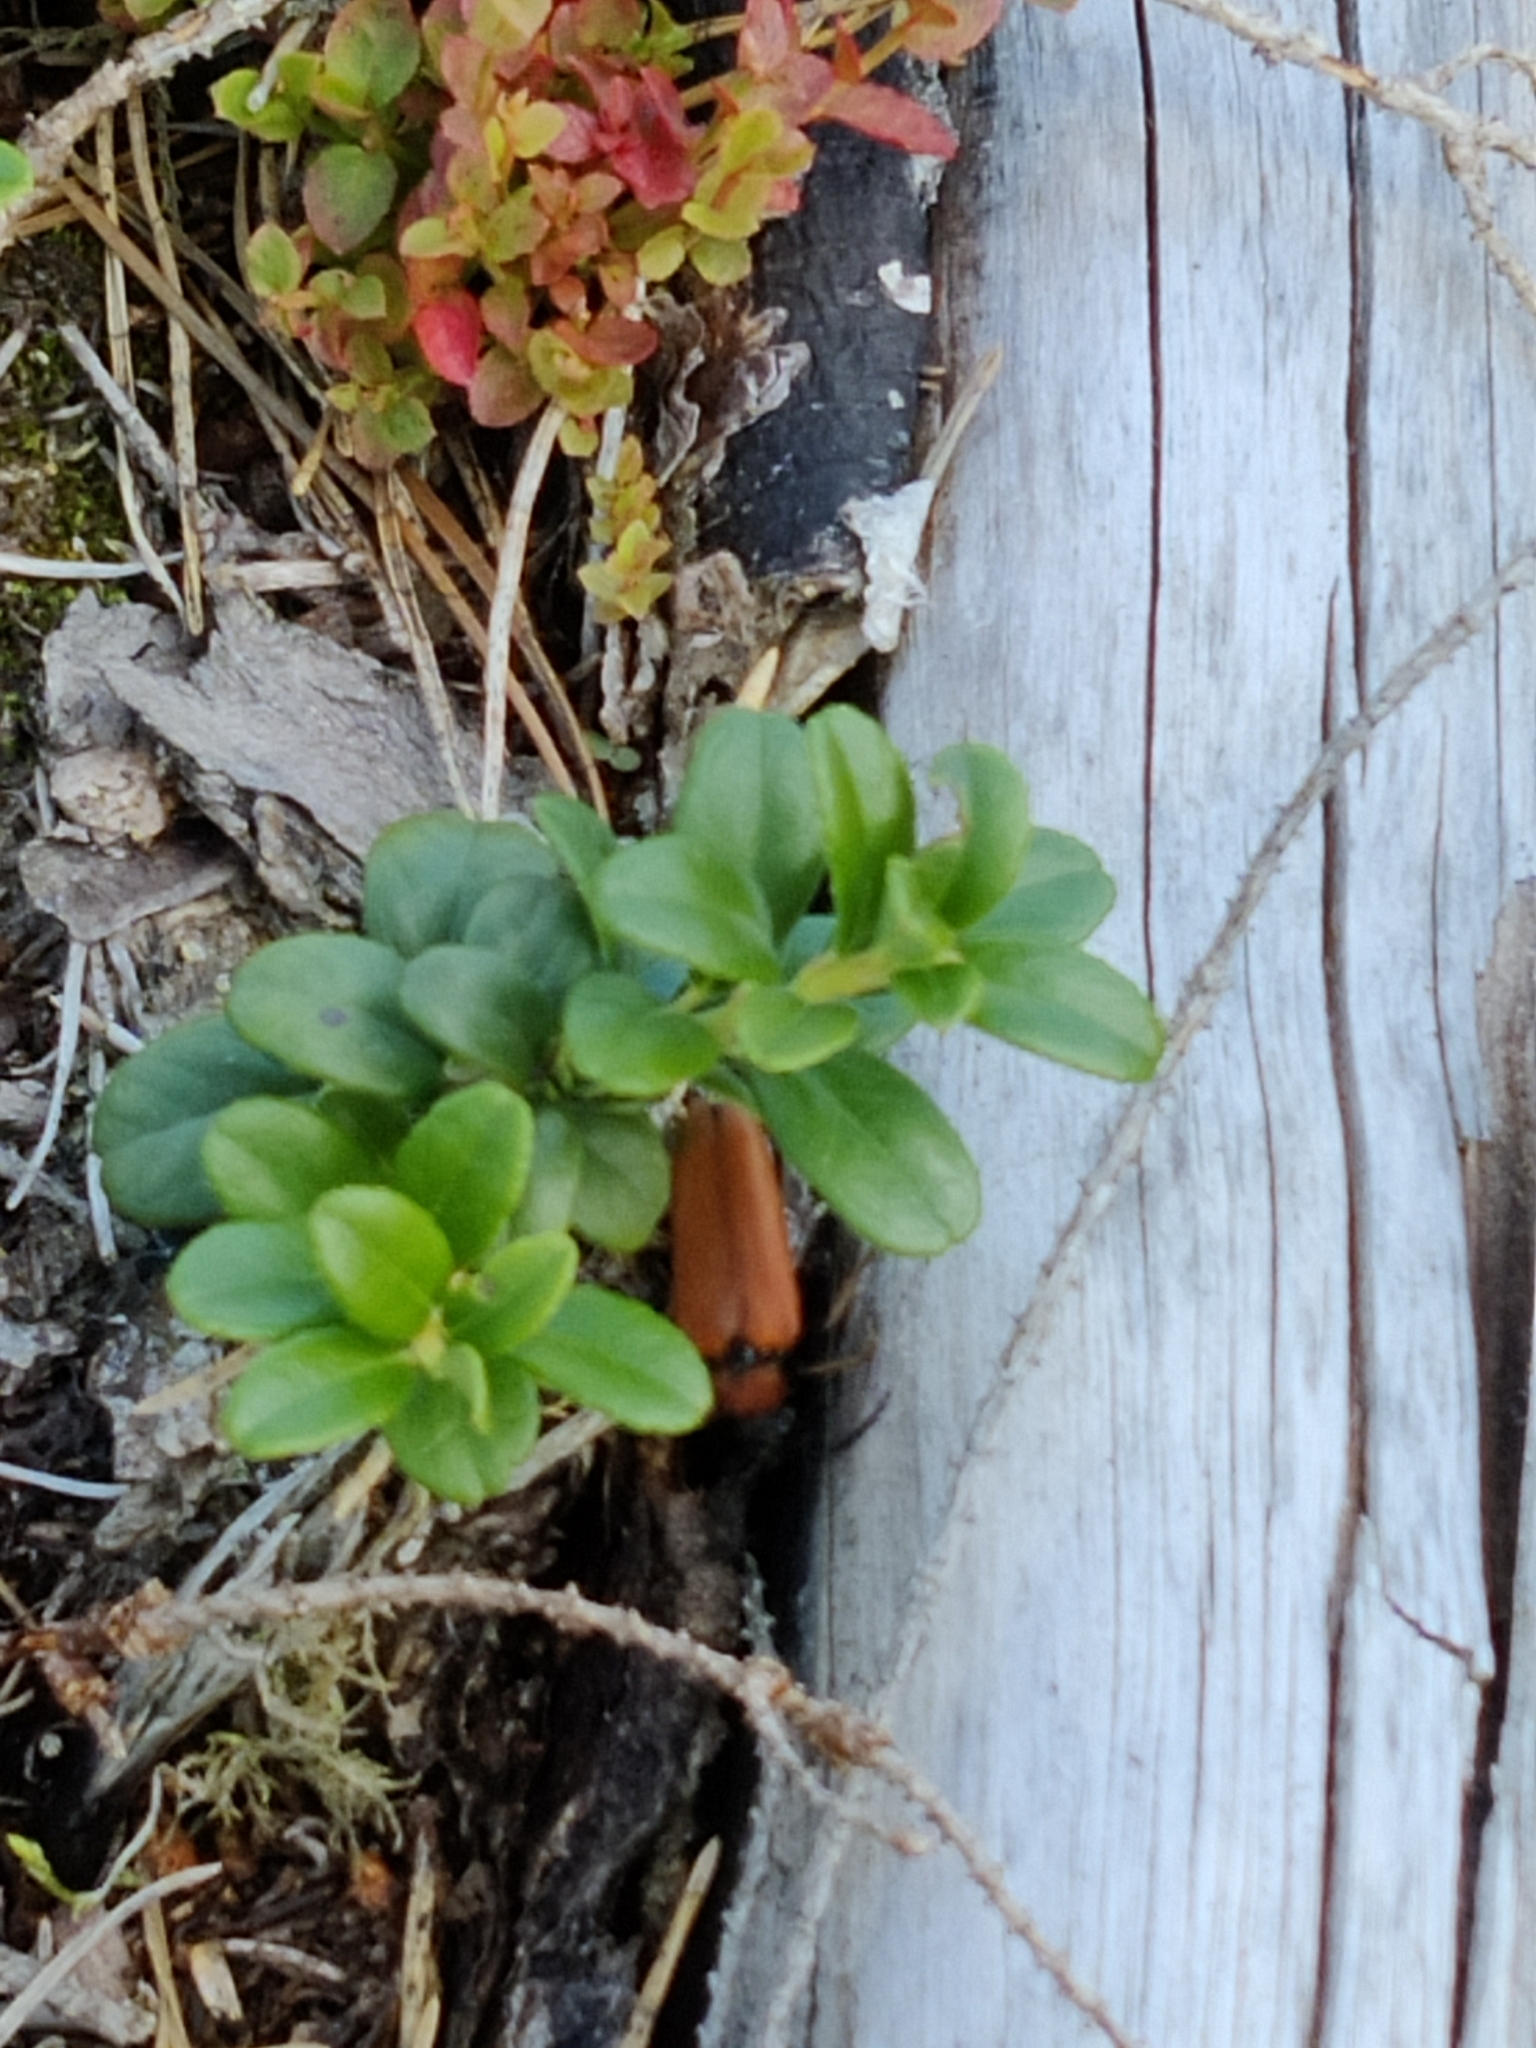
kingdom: Animalia
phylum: Arthropoda
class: Insecta
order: Coleoptera
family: Cerambycidae
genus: Stictoleptura
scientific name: Stictoleptura rubra
